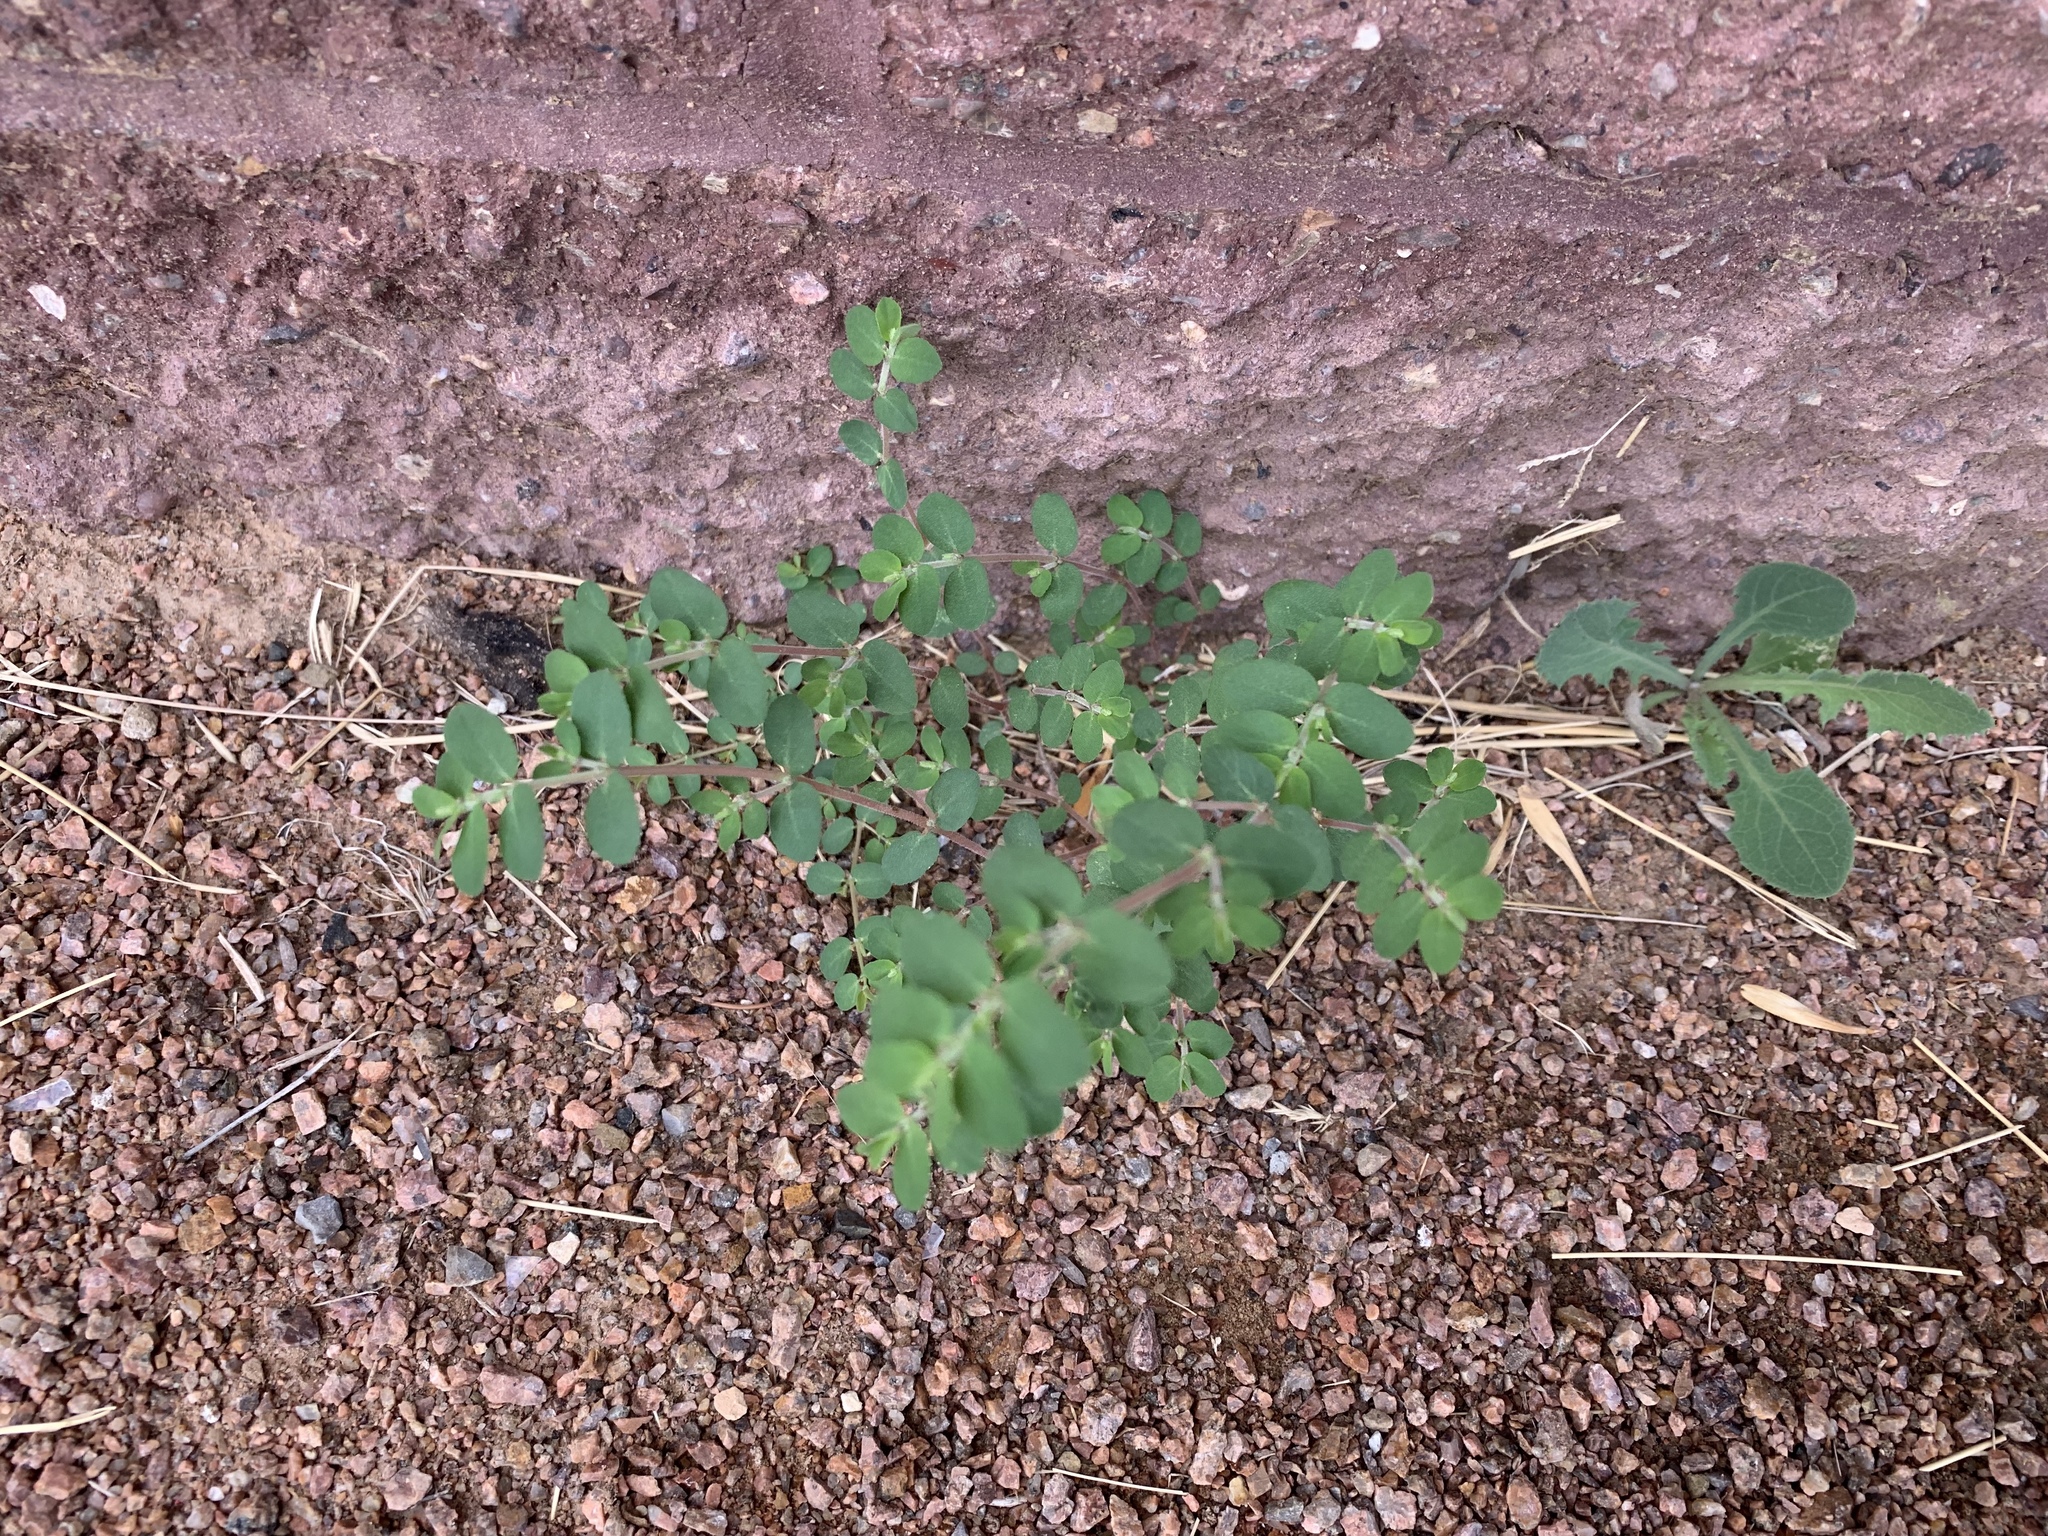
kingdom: Plantae
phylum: Tracheophyta
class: Magnoliopsida
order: Malpighiales
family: Euphorbiaceae
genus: Euphorbia
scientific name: Euphorbia prostrata
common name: Prostrate sandmat
